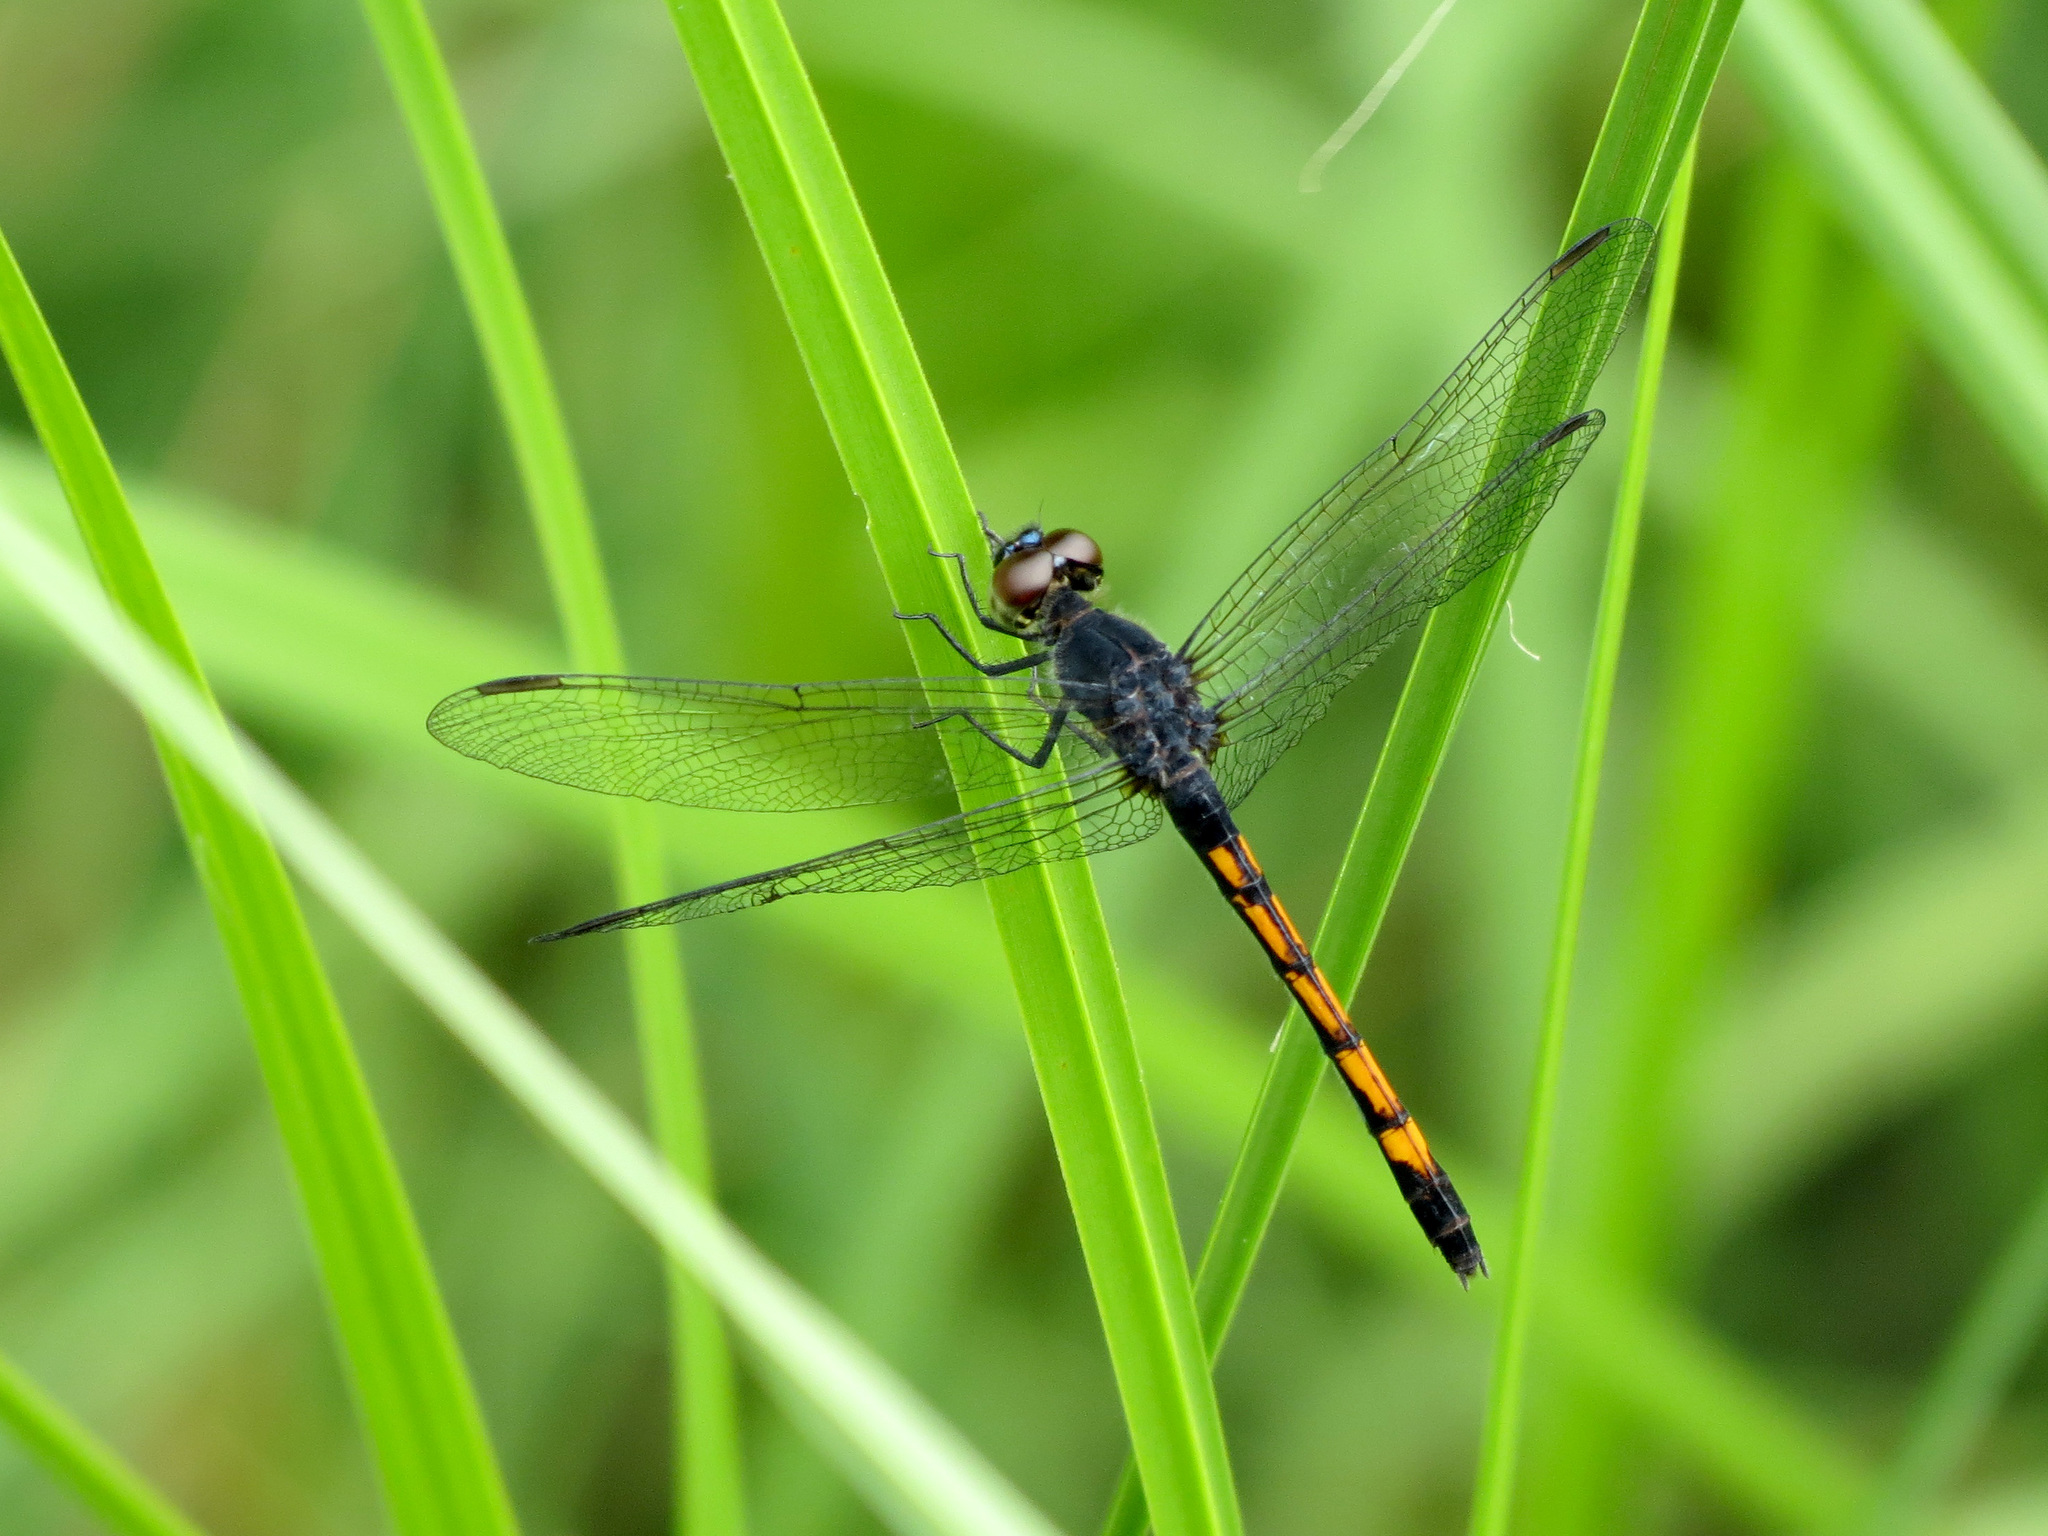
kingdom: Animalia
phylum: Arthropoda
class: Insecta
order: Odonata
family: Libellulidae
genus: Erythrodiplax
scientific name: Erythrodiplax berenice
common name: Seaside dragonlet
